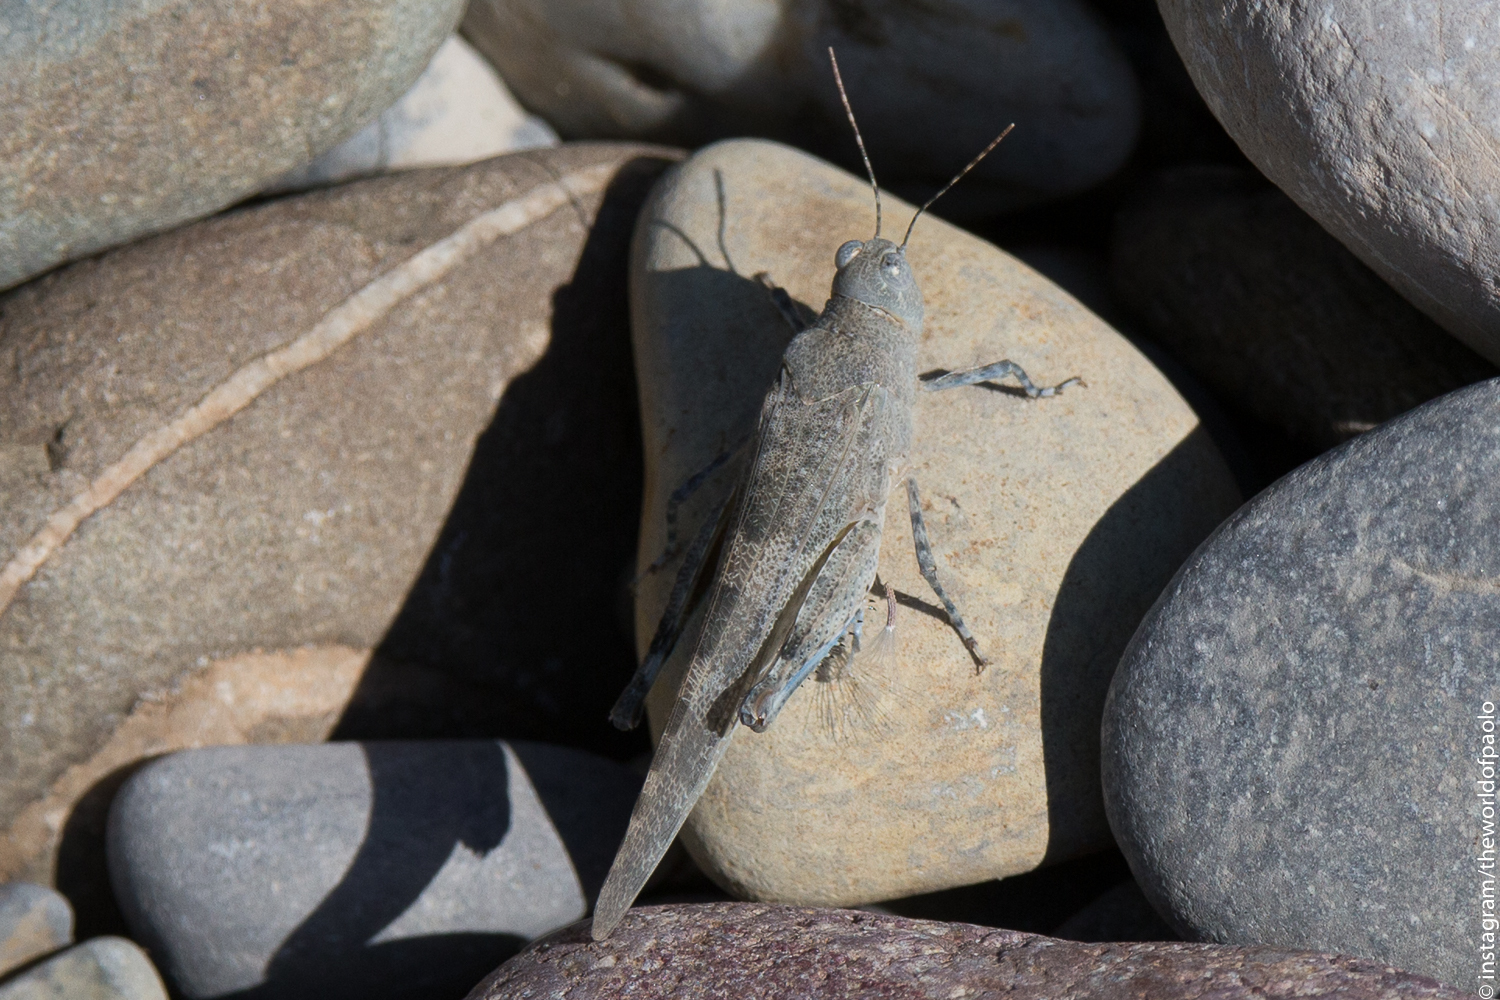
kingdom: Animalia
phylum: Arthropoda
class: Insecta
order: Orthoptera
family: Acrididae
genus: Sphingonotus
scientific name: Sphingonotus caerulans
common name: Blue-winged locust
